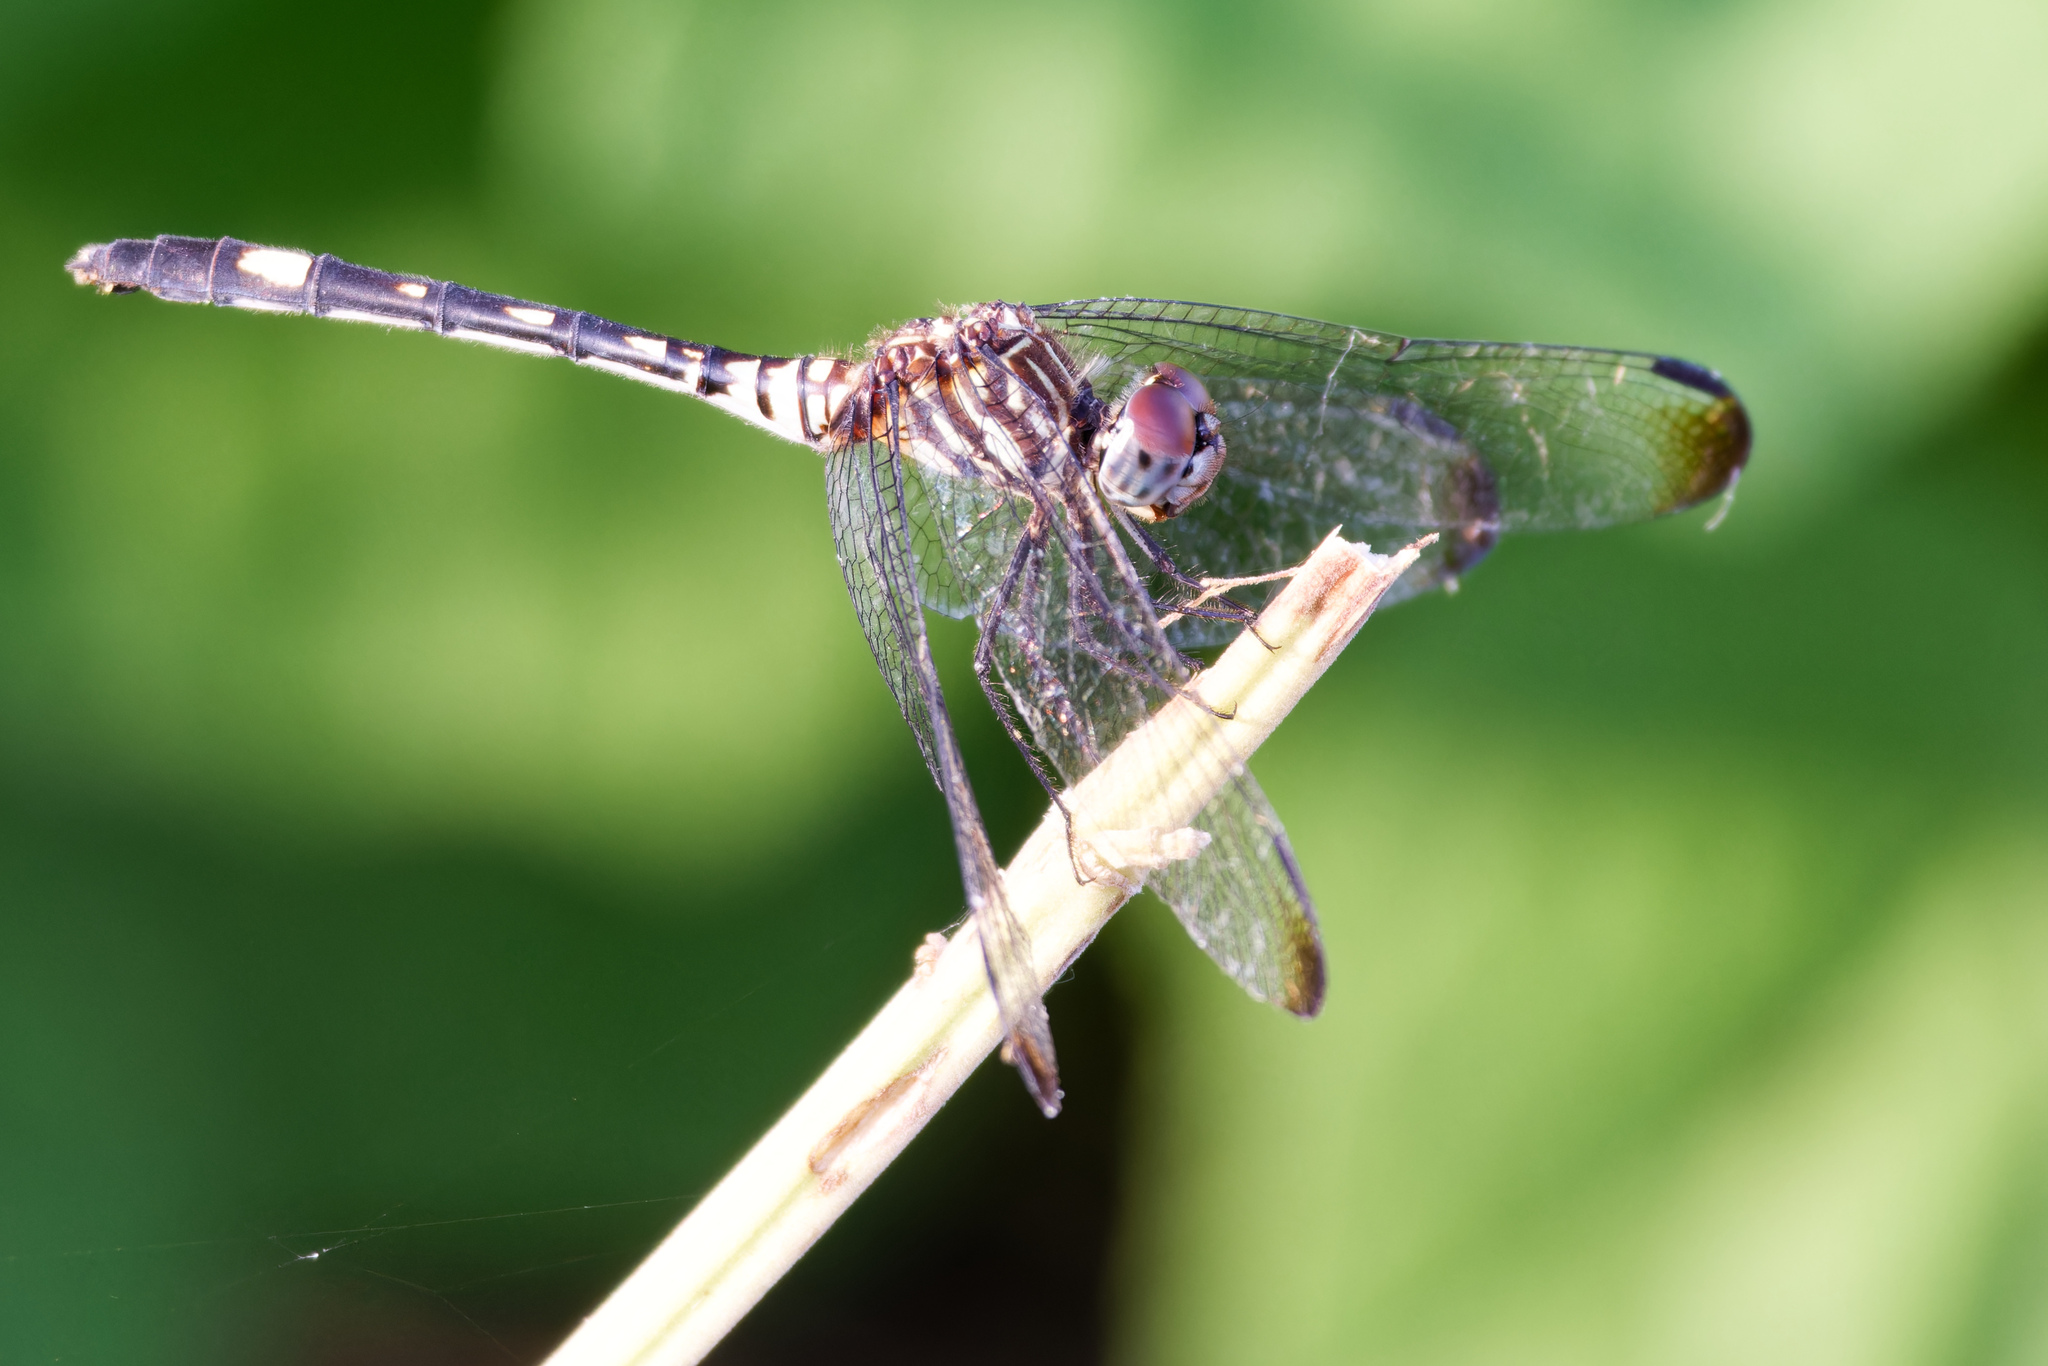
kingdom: Animalia
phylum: Arthropoda
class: Insecta
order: Odonata
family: Libellulidae
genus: Dythemis
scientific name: Dythemis velox
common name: Swift setwing
